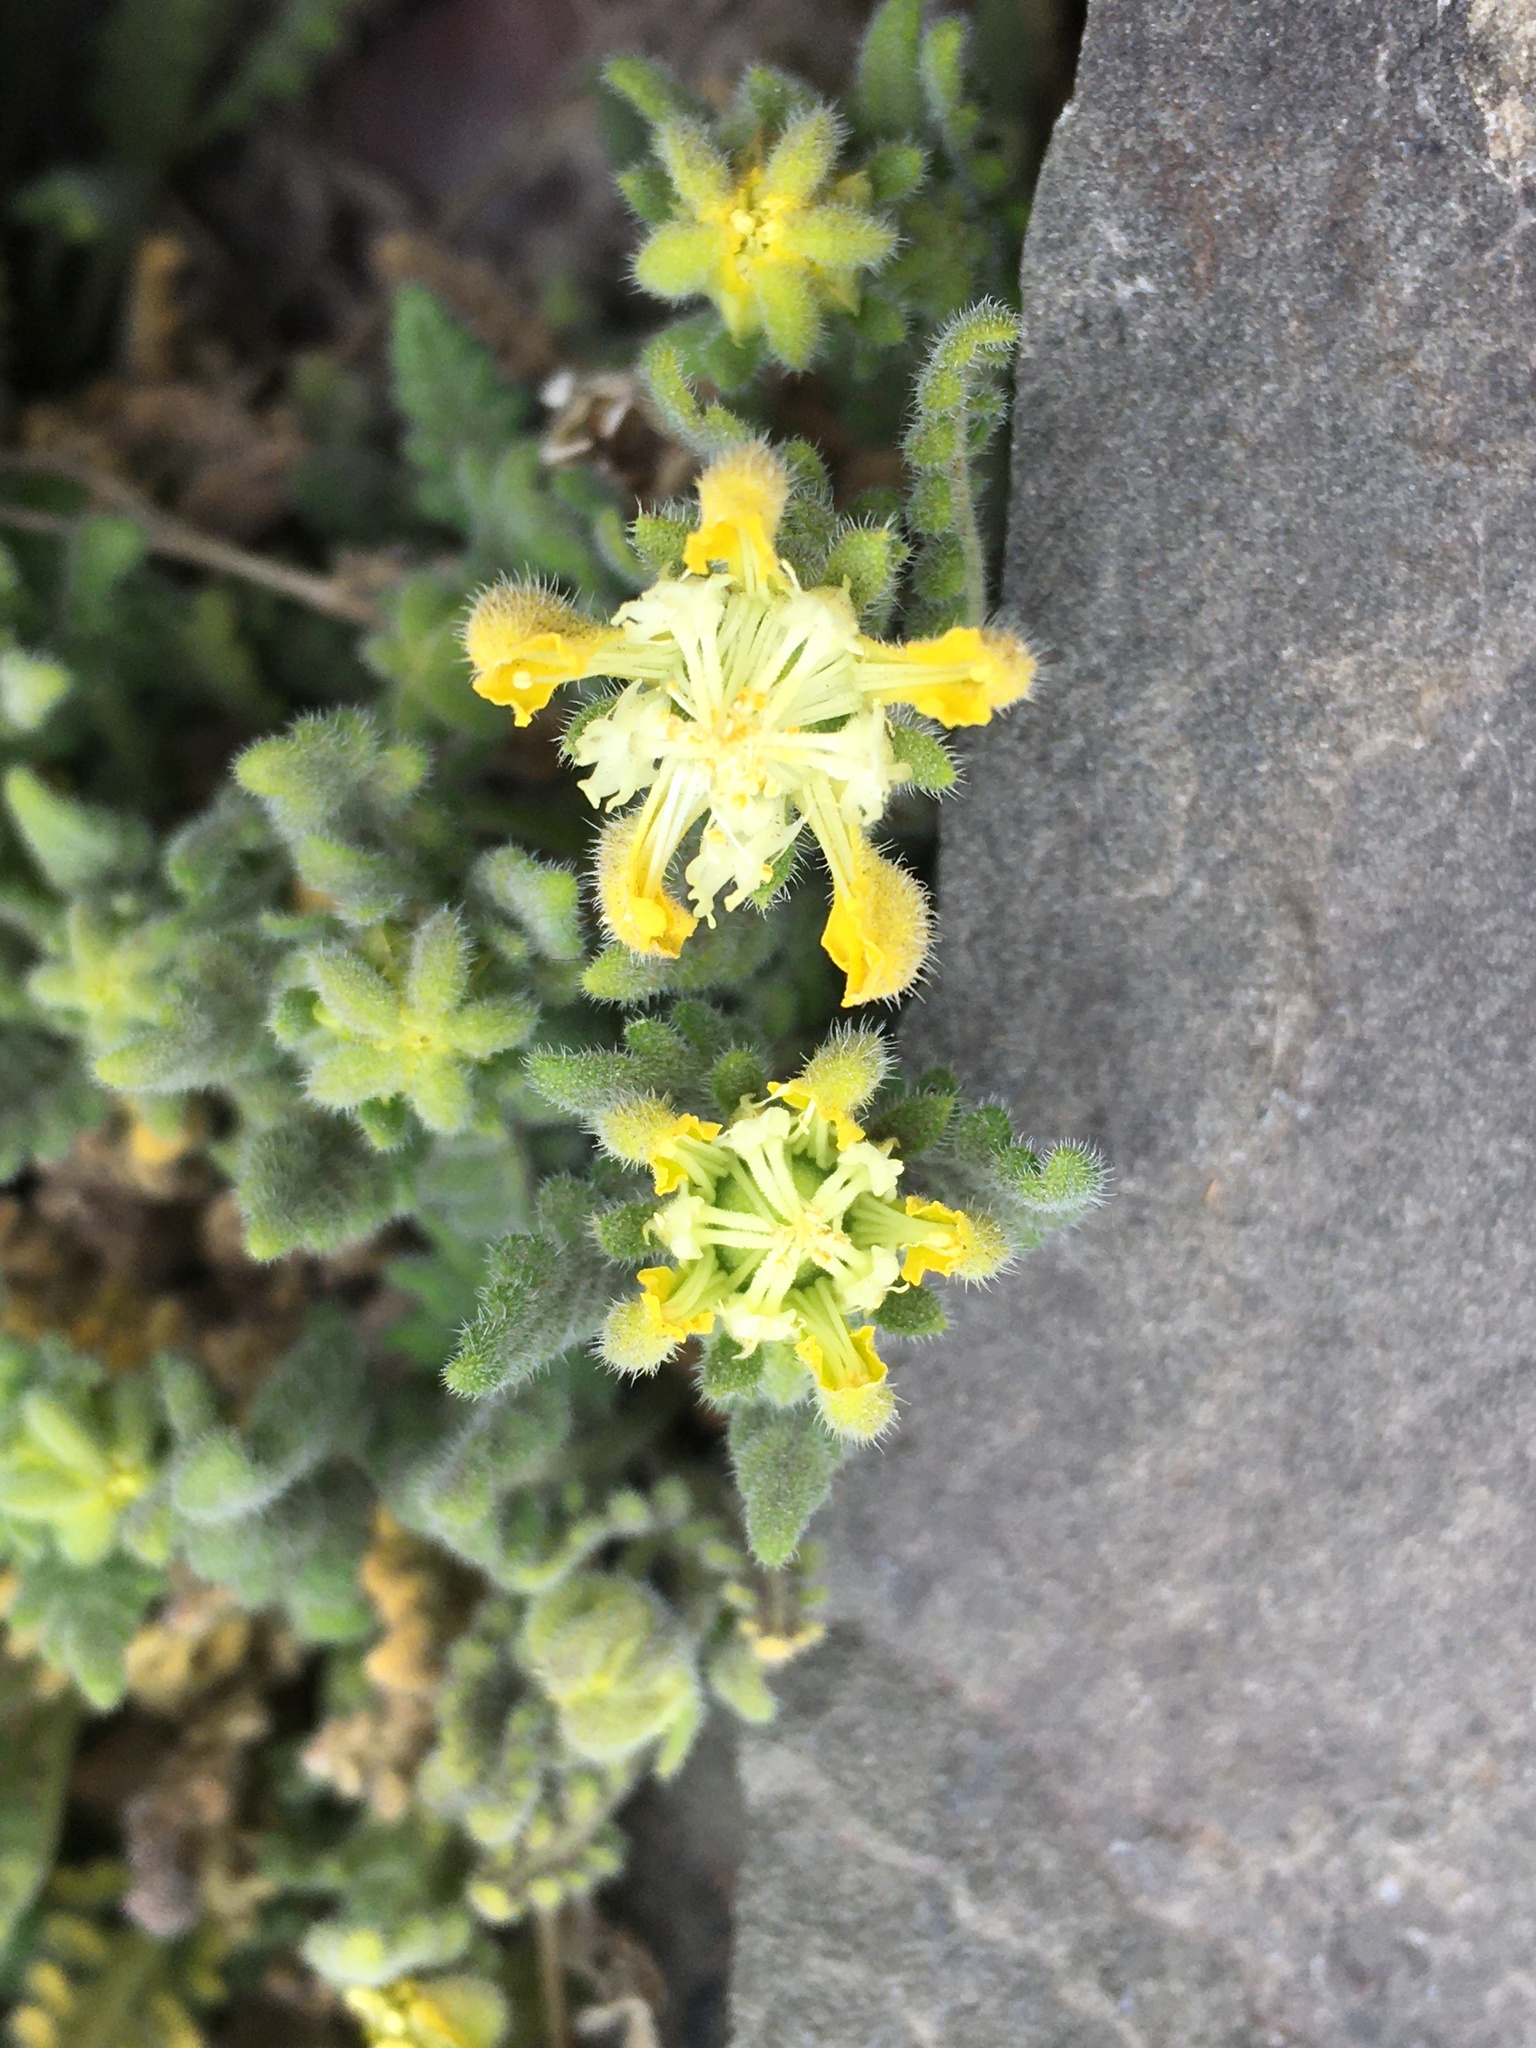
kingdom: Plantae
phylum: Tracheophyta
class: Magnoliopsida
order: Cornales
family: Loasaceae
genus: Loasa
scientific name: Loasa caespitosa
